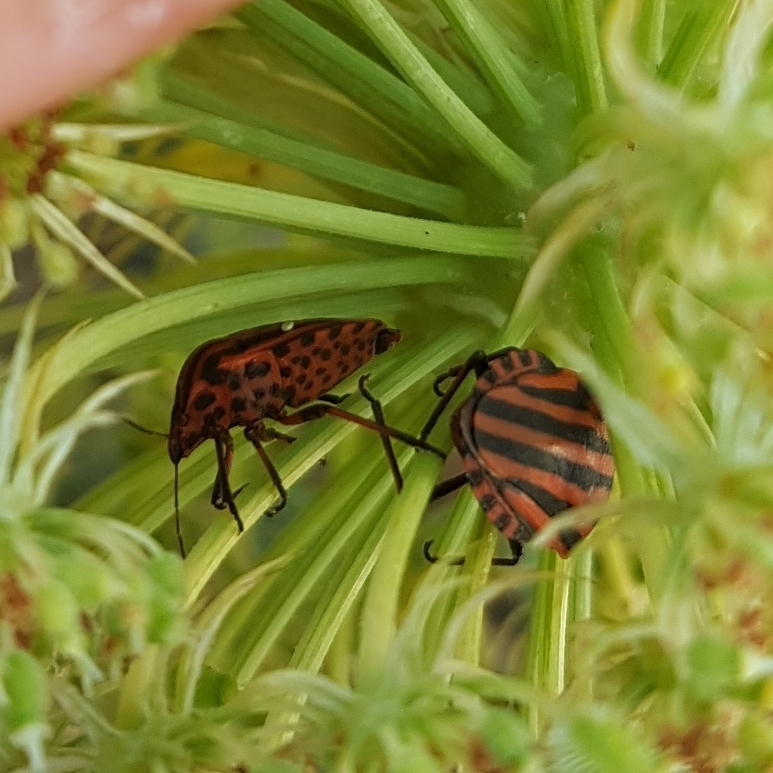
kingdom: Animalia
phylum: Arthropoda
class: Insecta
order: Hemiptera
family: Pentatomidae
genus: Graphosoma
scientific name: Graphosoma italicum
